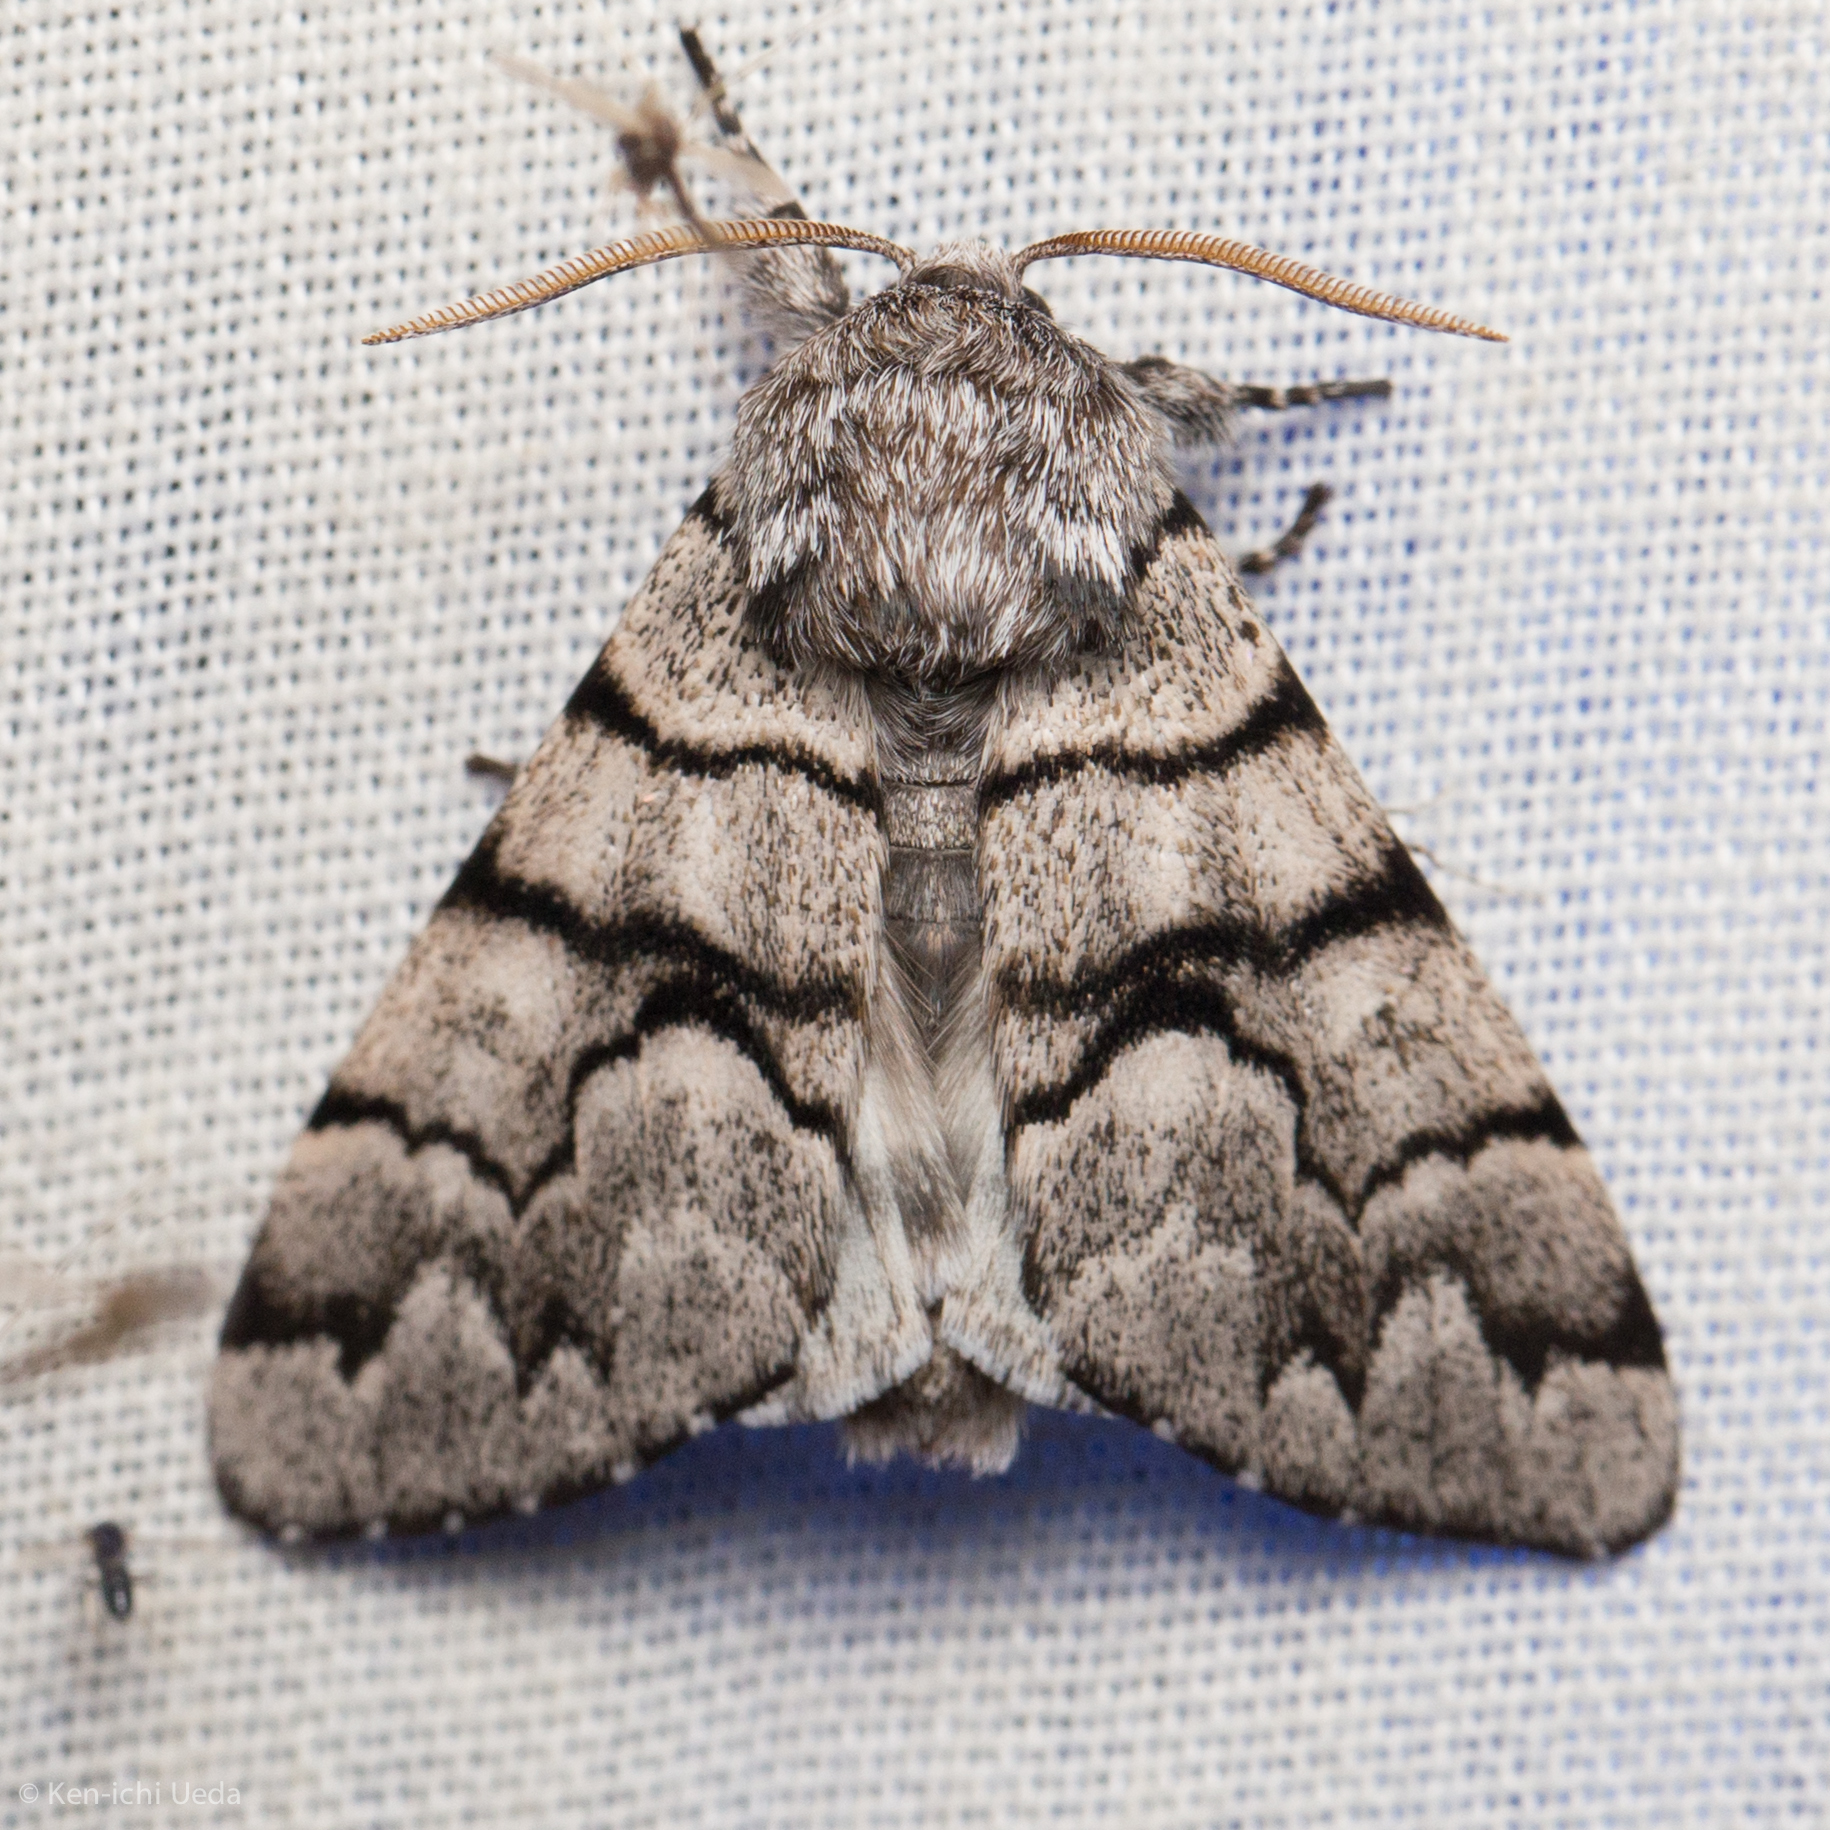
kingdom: Animalia
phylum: Arthropoda
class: Insecta
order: Lepidoptera
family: Noctuidae
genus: Panthea
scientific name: Panthea furcilla
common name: Eastern panthea moth
